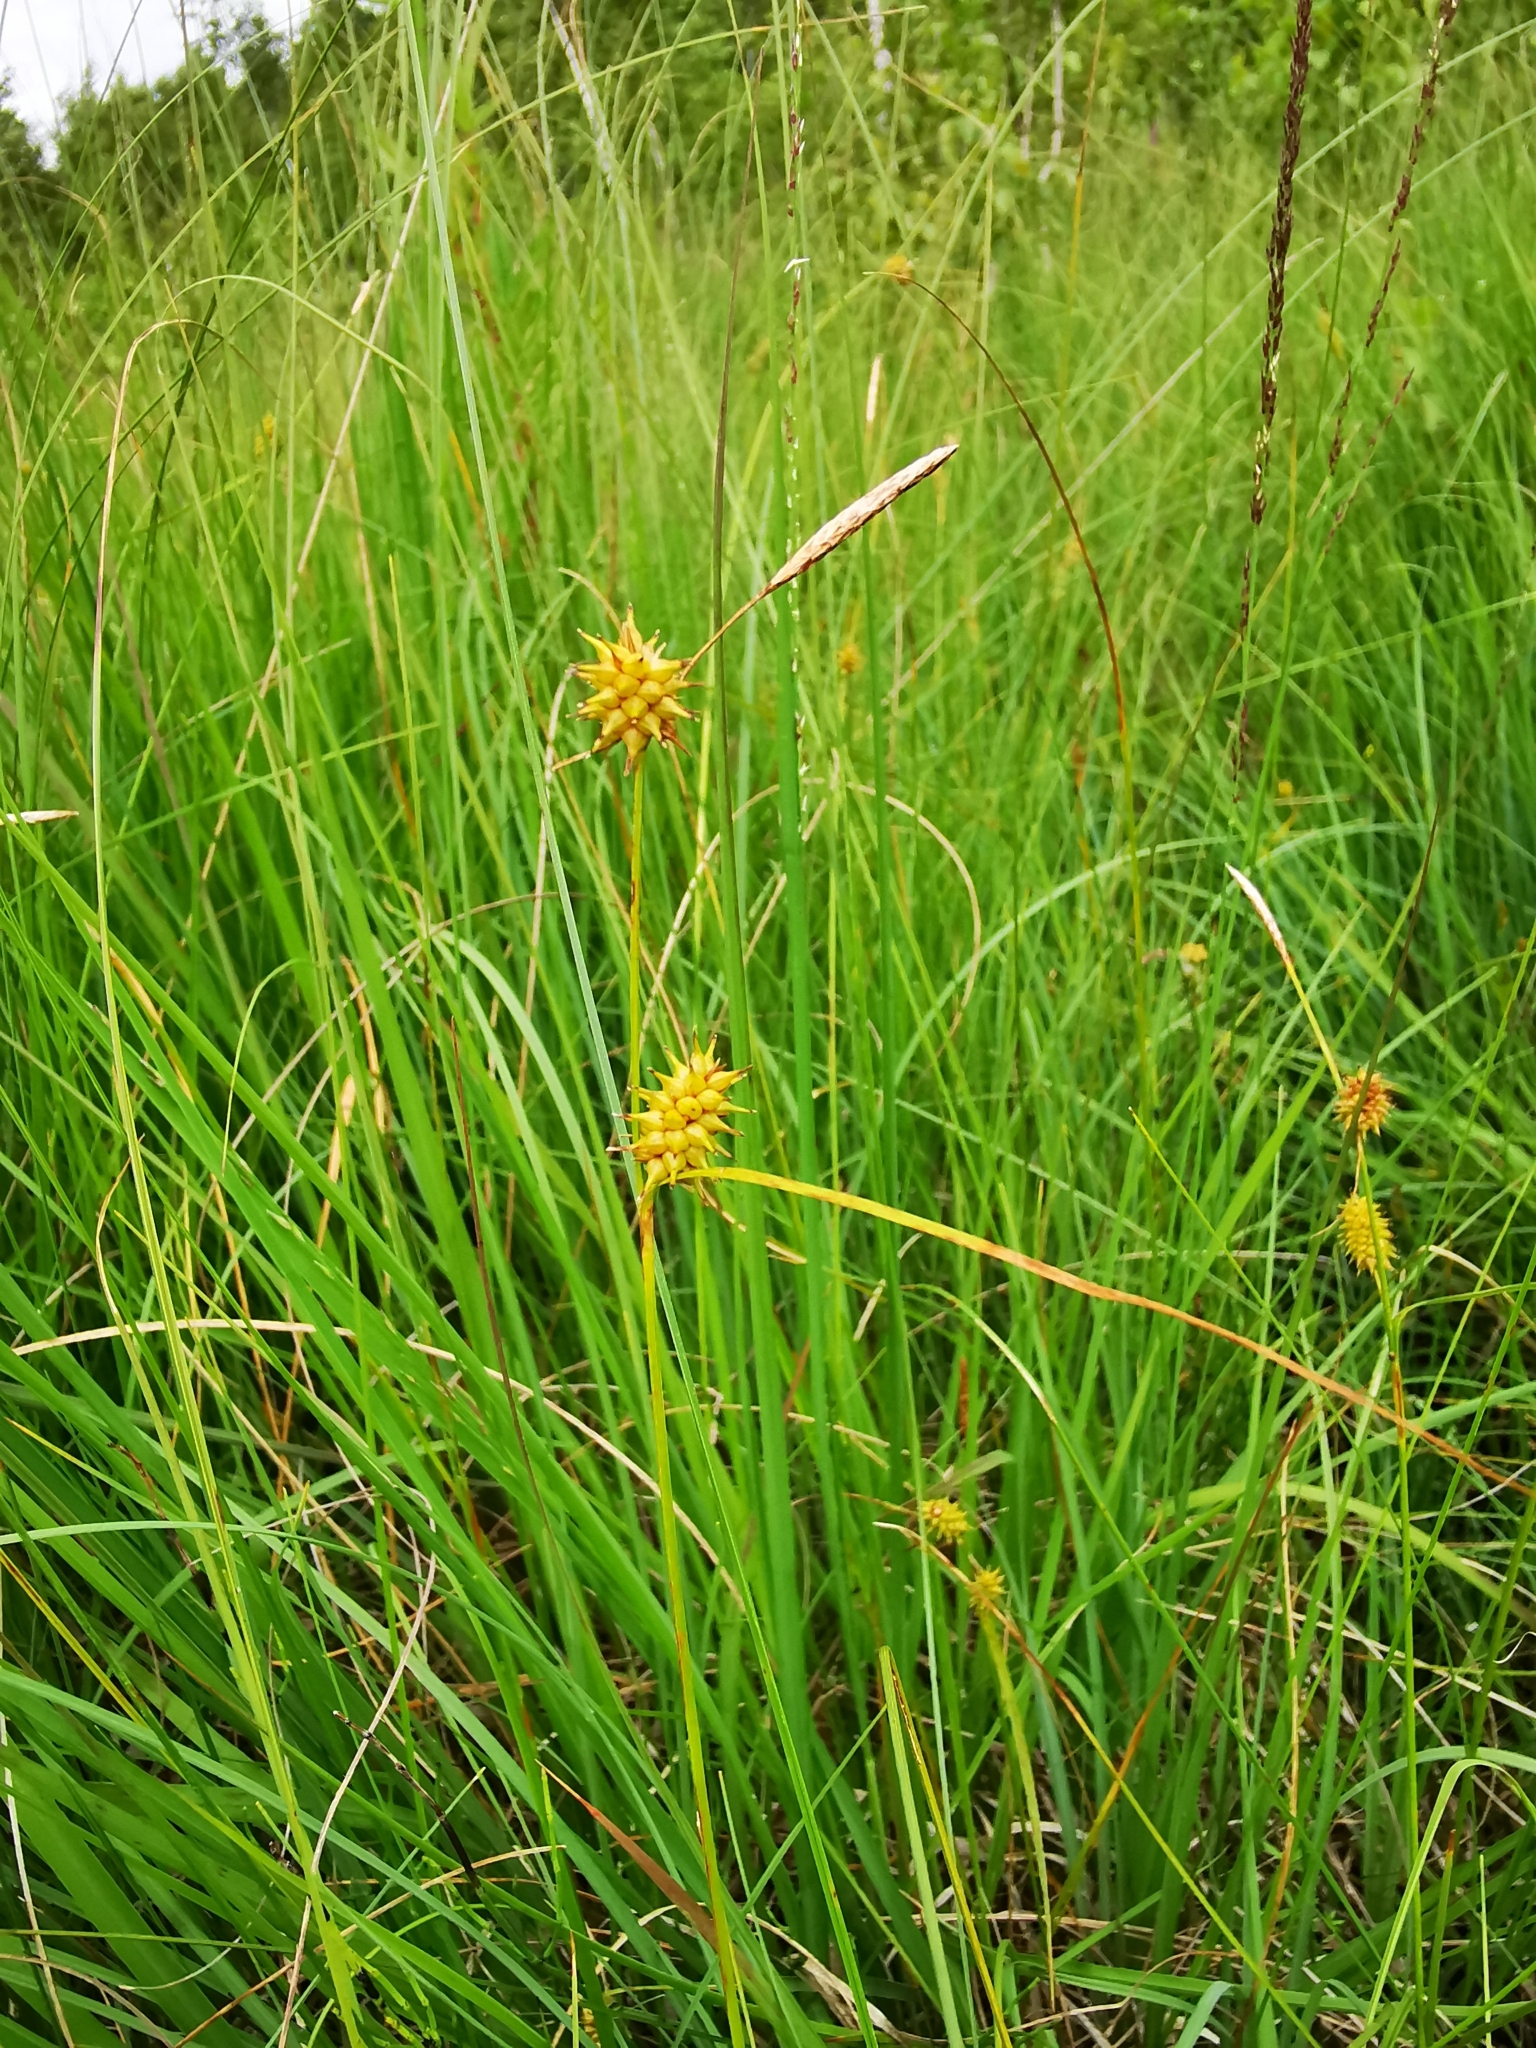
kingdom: Plantae
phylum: Tracheophyta
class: Liliopsida
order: Poales
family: Cyperaceae
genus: Carex
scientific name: Carex lepidocarpa
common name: Long-stalked yellow-sedge
